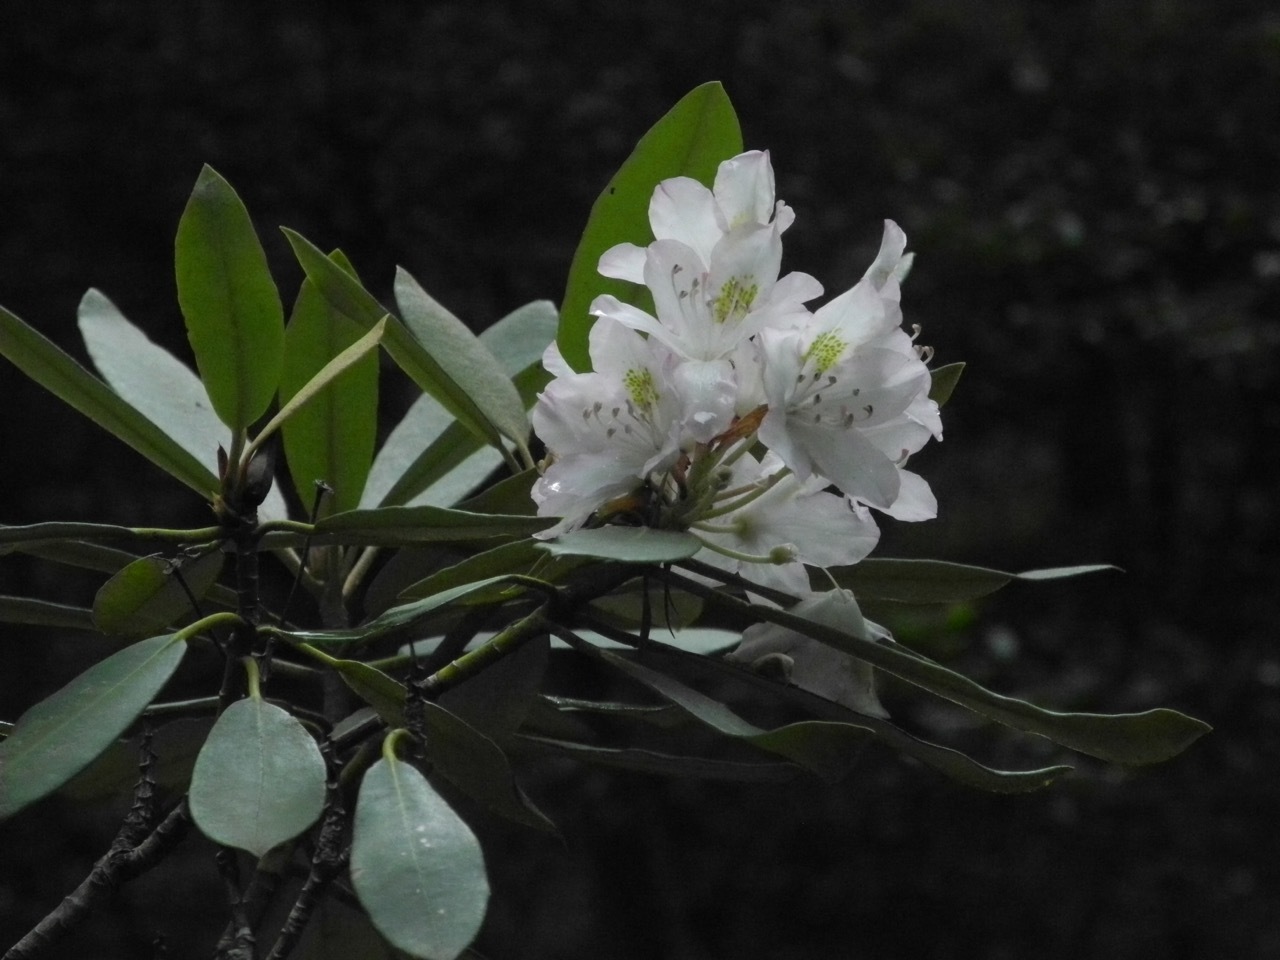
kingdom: Plantae
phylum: Tracheophyta
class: Magnoliopsida
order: Ericales
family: Ericaceae
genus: Rhododendron
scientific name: Rhododendron maximum
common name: Great rhododendron
